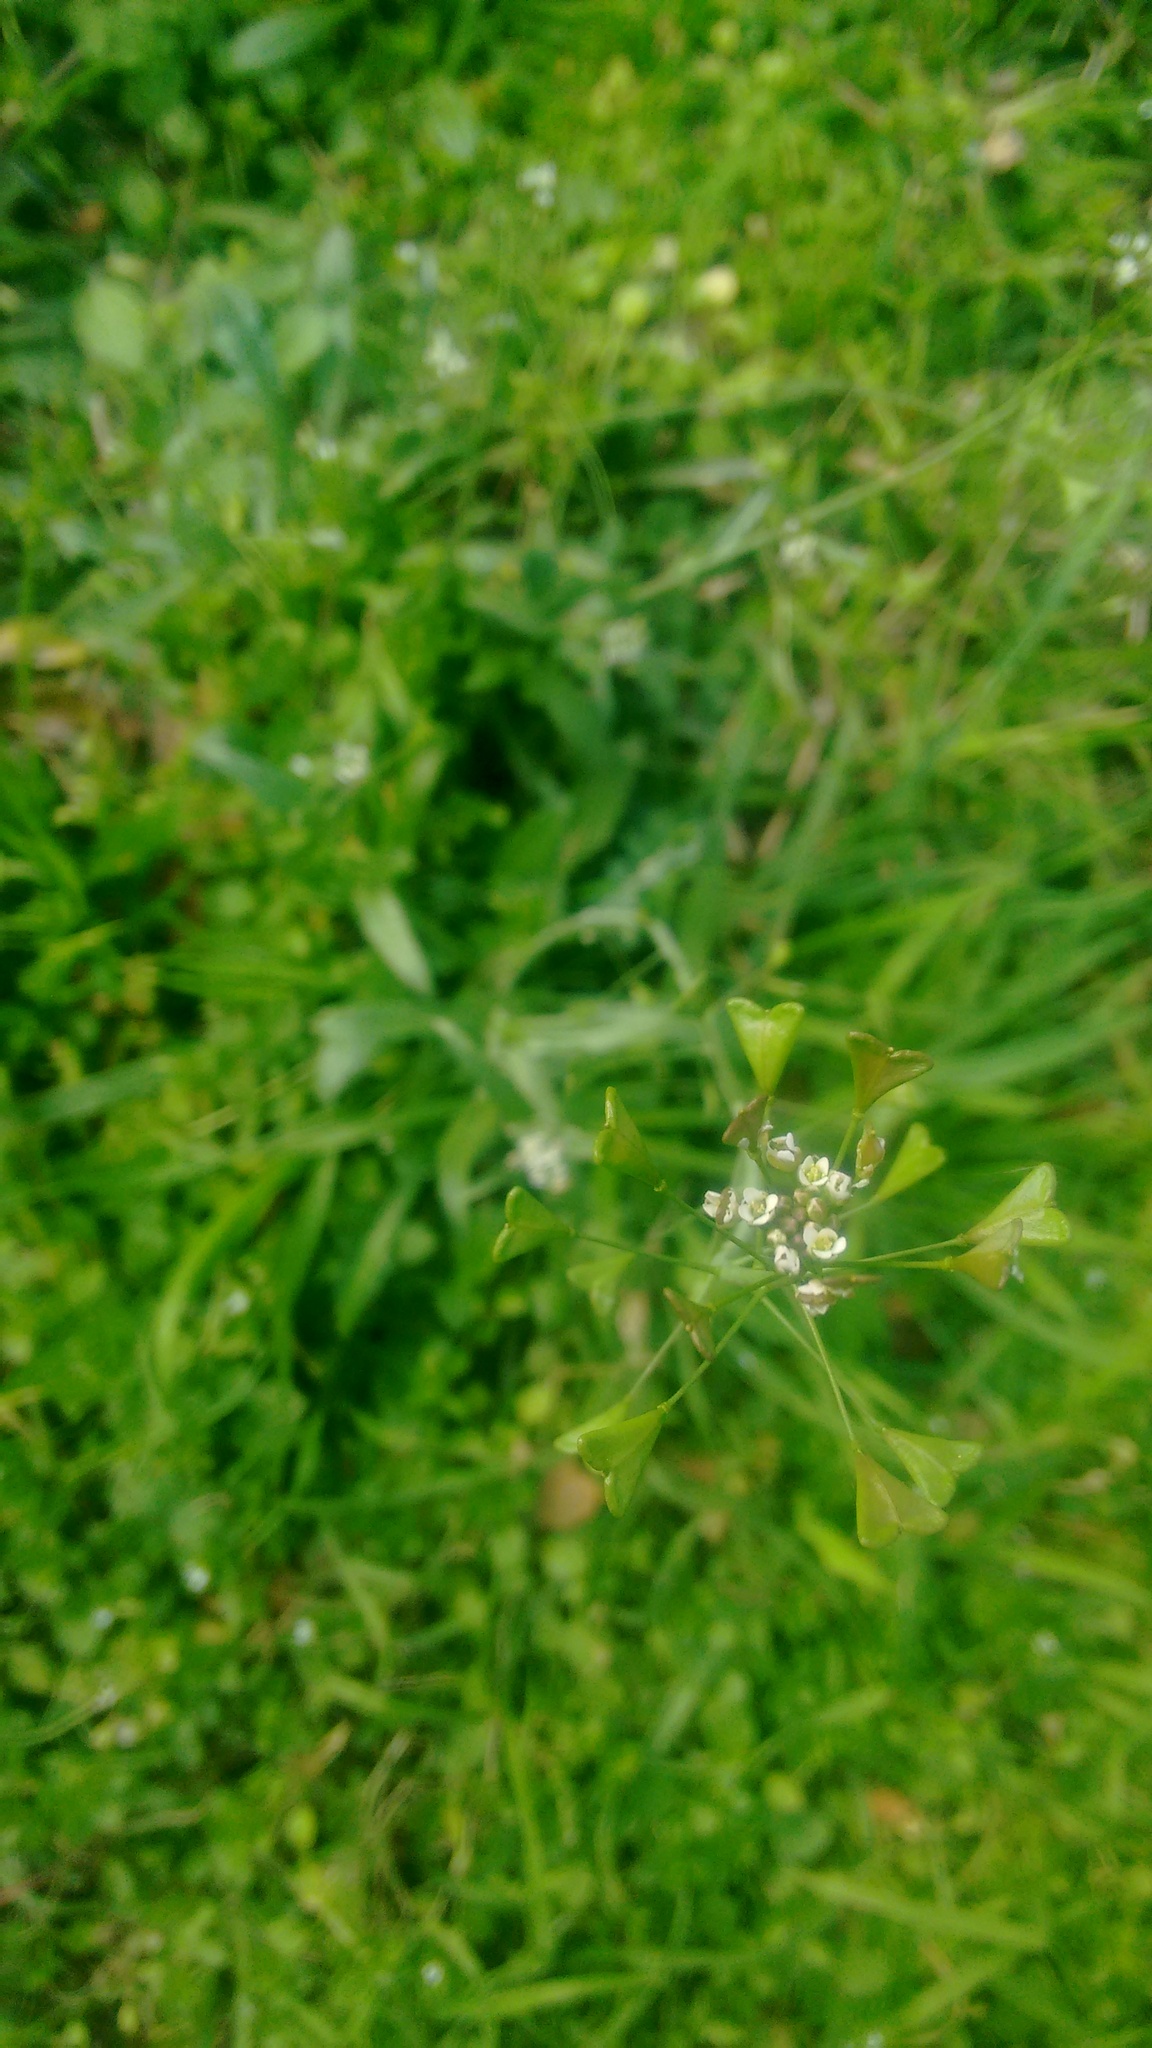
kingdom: Plantae
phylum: Tracheophyta
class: Magnoliopsida
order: Brassicales
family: Brassicaceae
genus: Capsella
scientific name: Capsella bursa-pastoris
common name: Shepherd's purse
